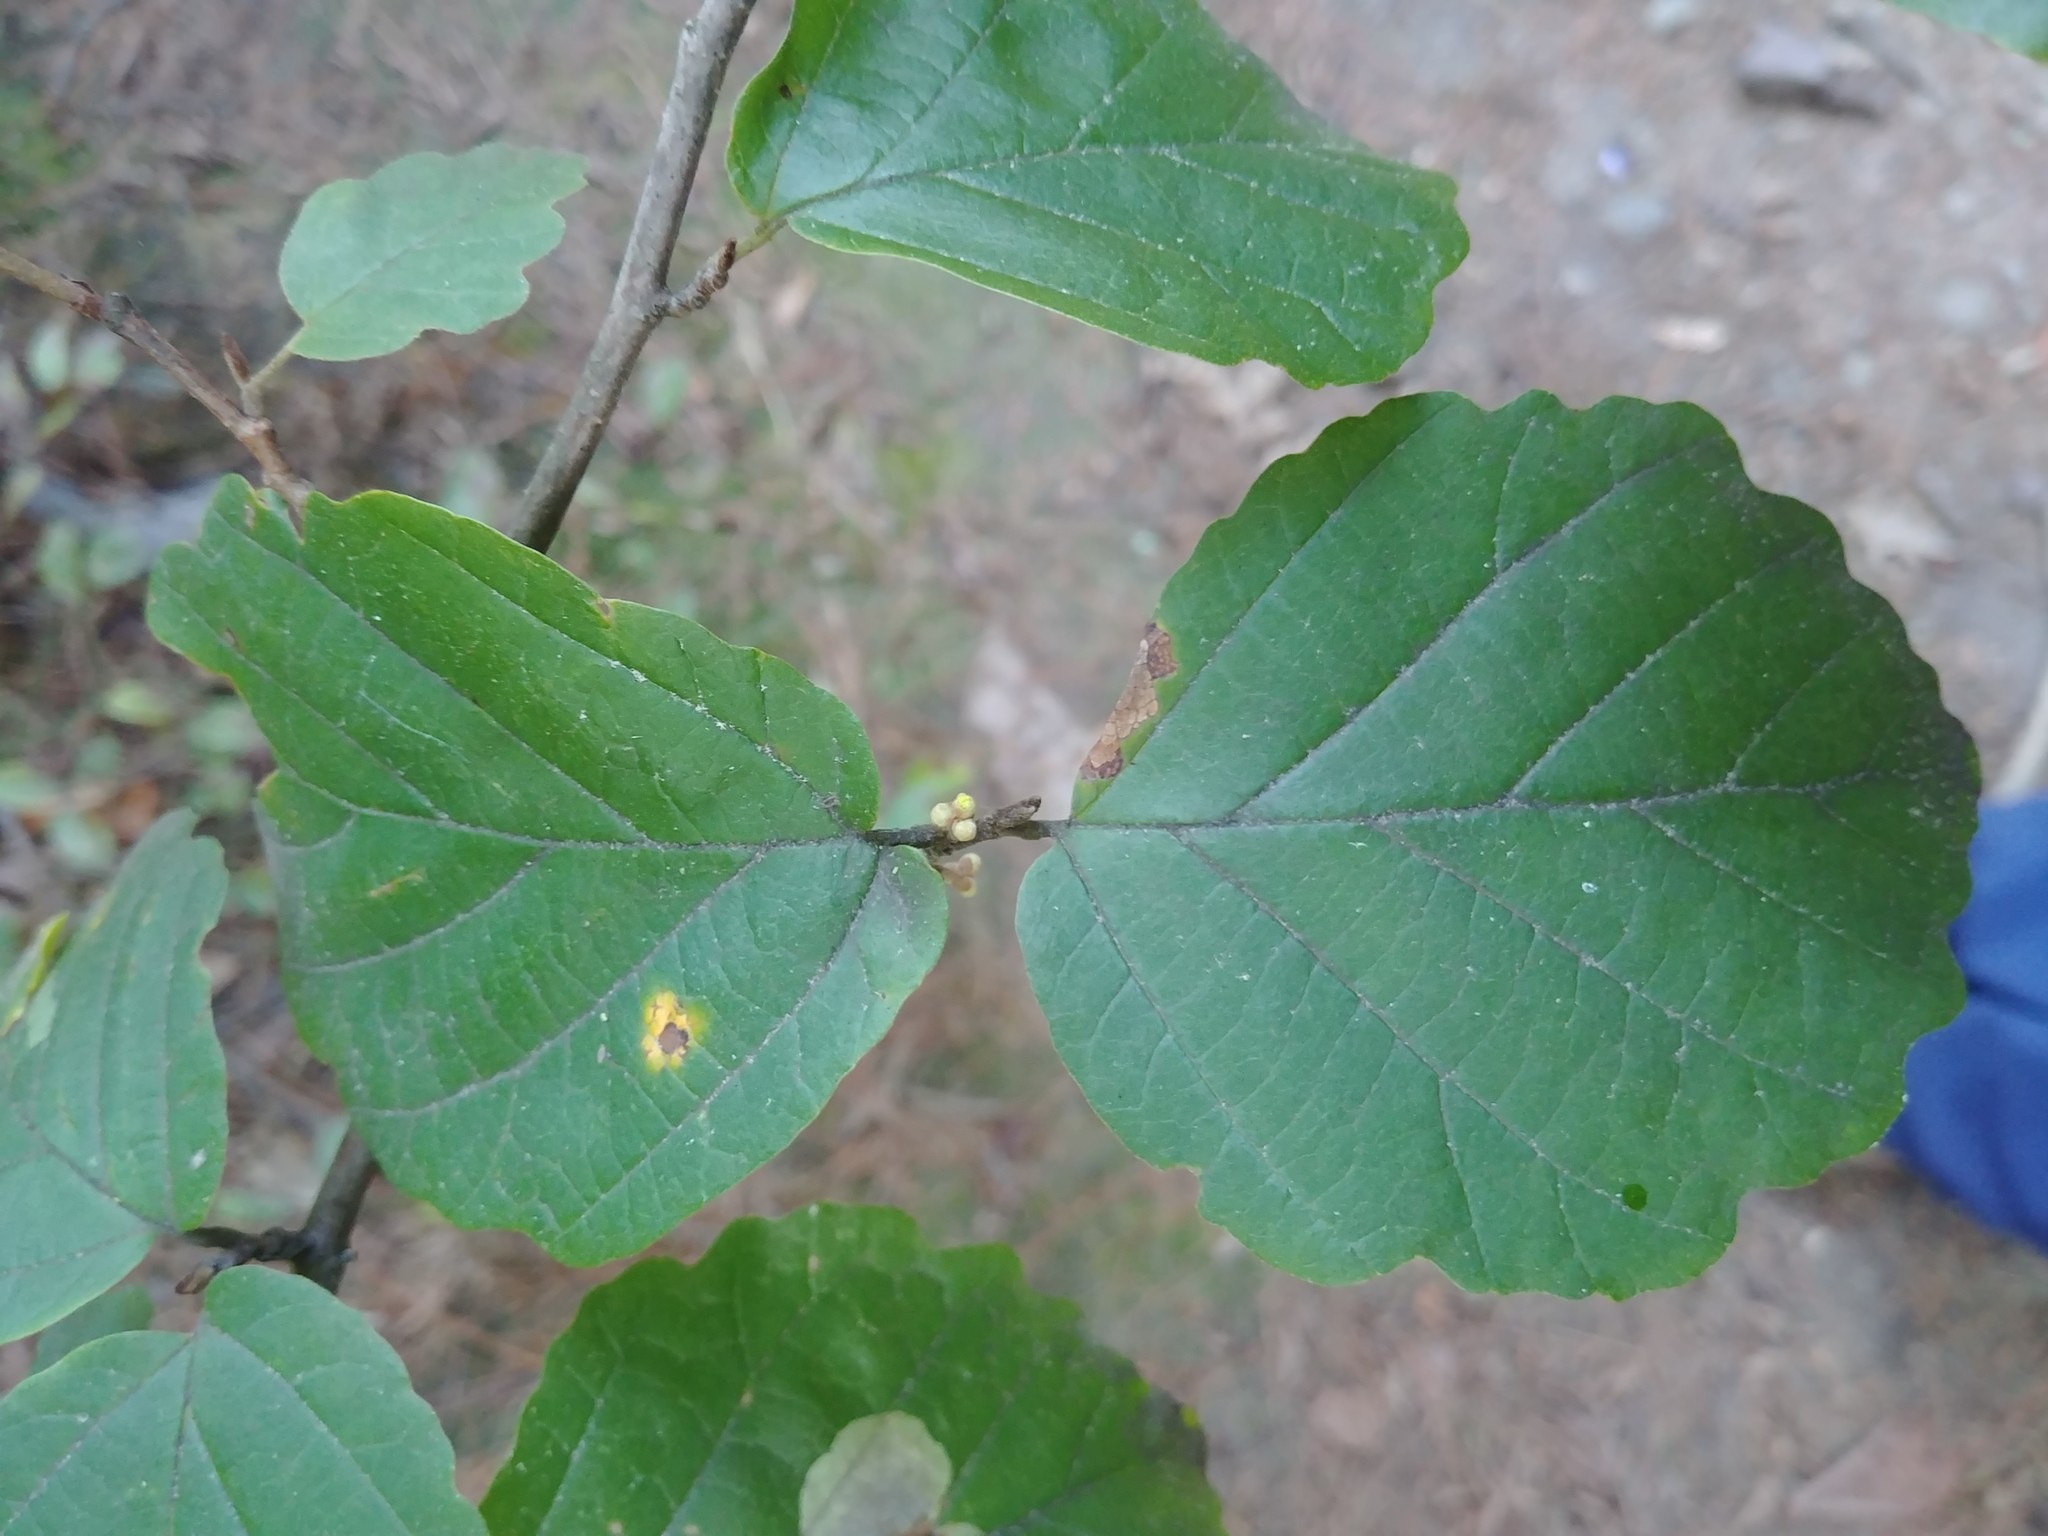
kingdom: Plantae
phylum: Tracheophyta
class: Magnoliopsida
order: Saxifragales
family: Hamamelidaceae
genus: Hamamelis
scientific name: Hamamelis virginiana
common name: Witch-hazel
